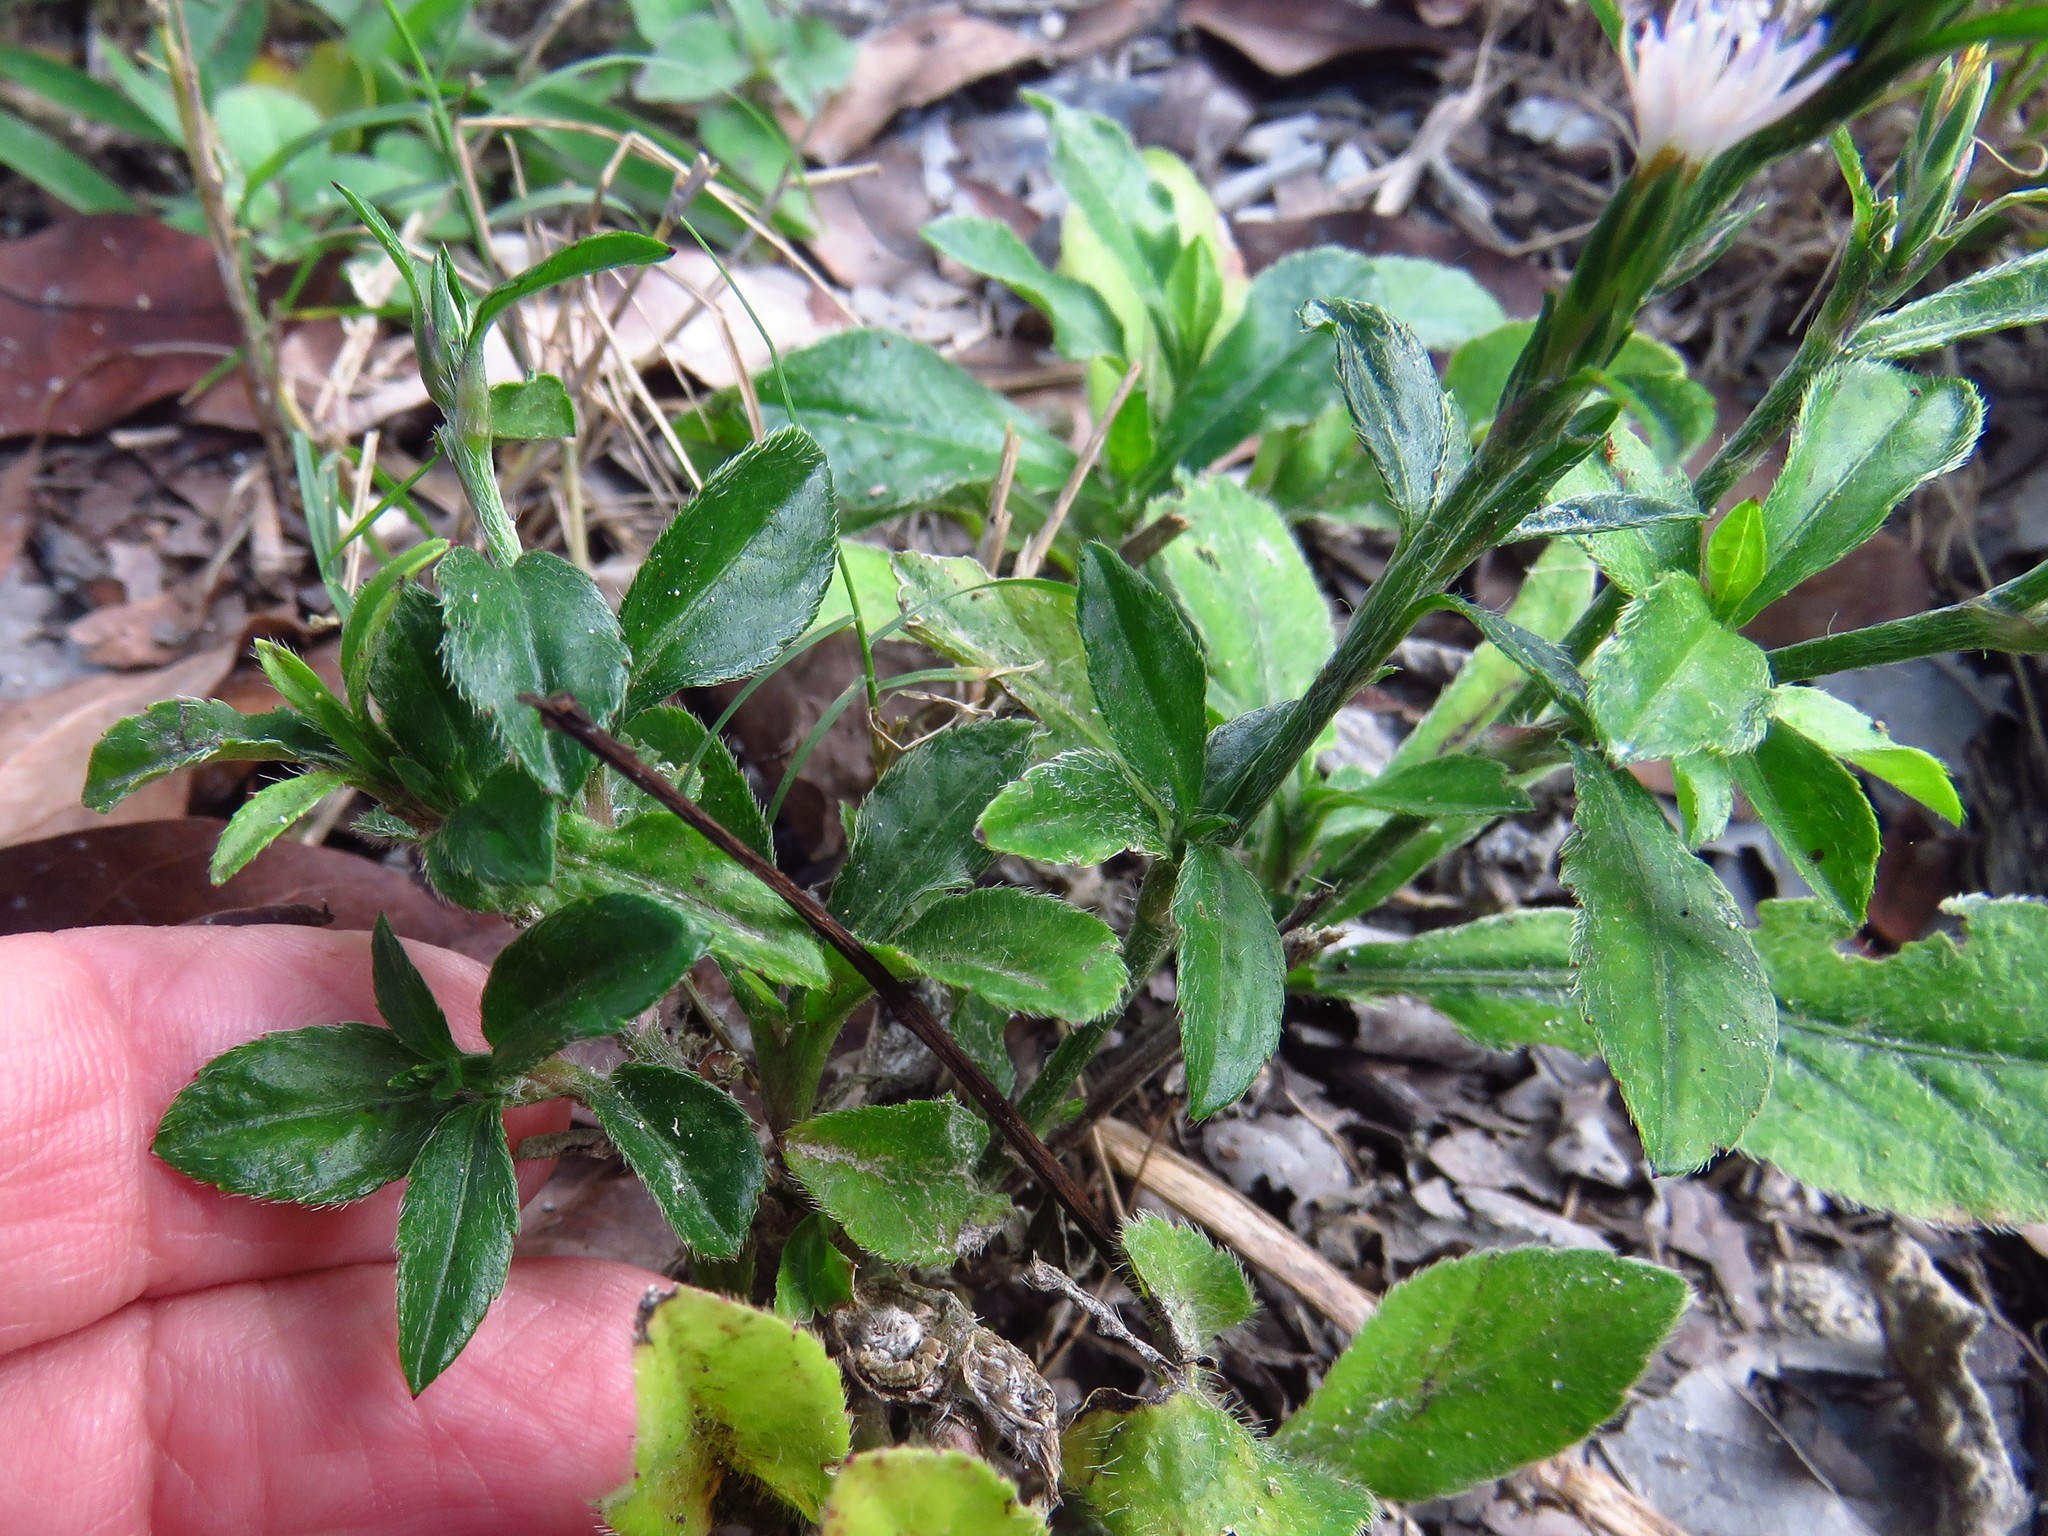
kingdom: Plantae
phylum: Tracheophyta
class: Magnoliopsida
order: Asterales
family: Asteraceae
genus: Pseudelephantopus
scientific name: Pseudelephantopus spicatus
